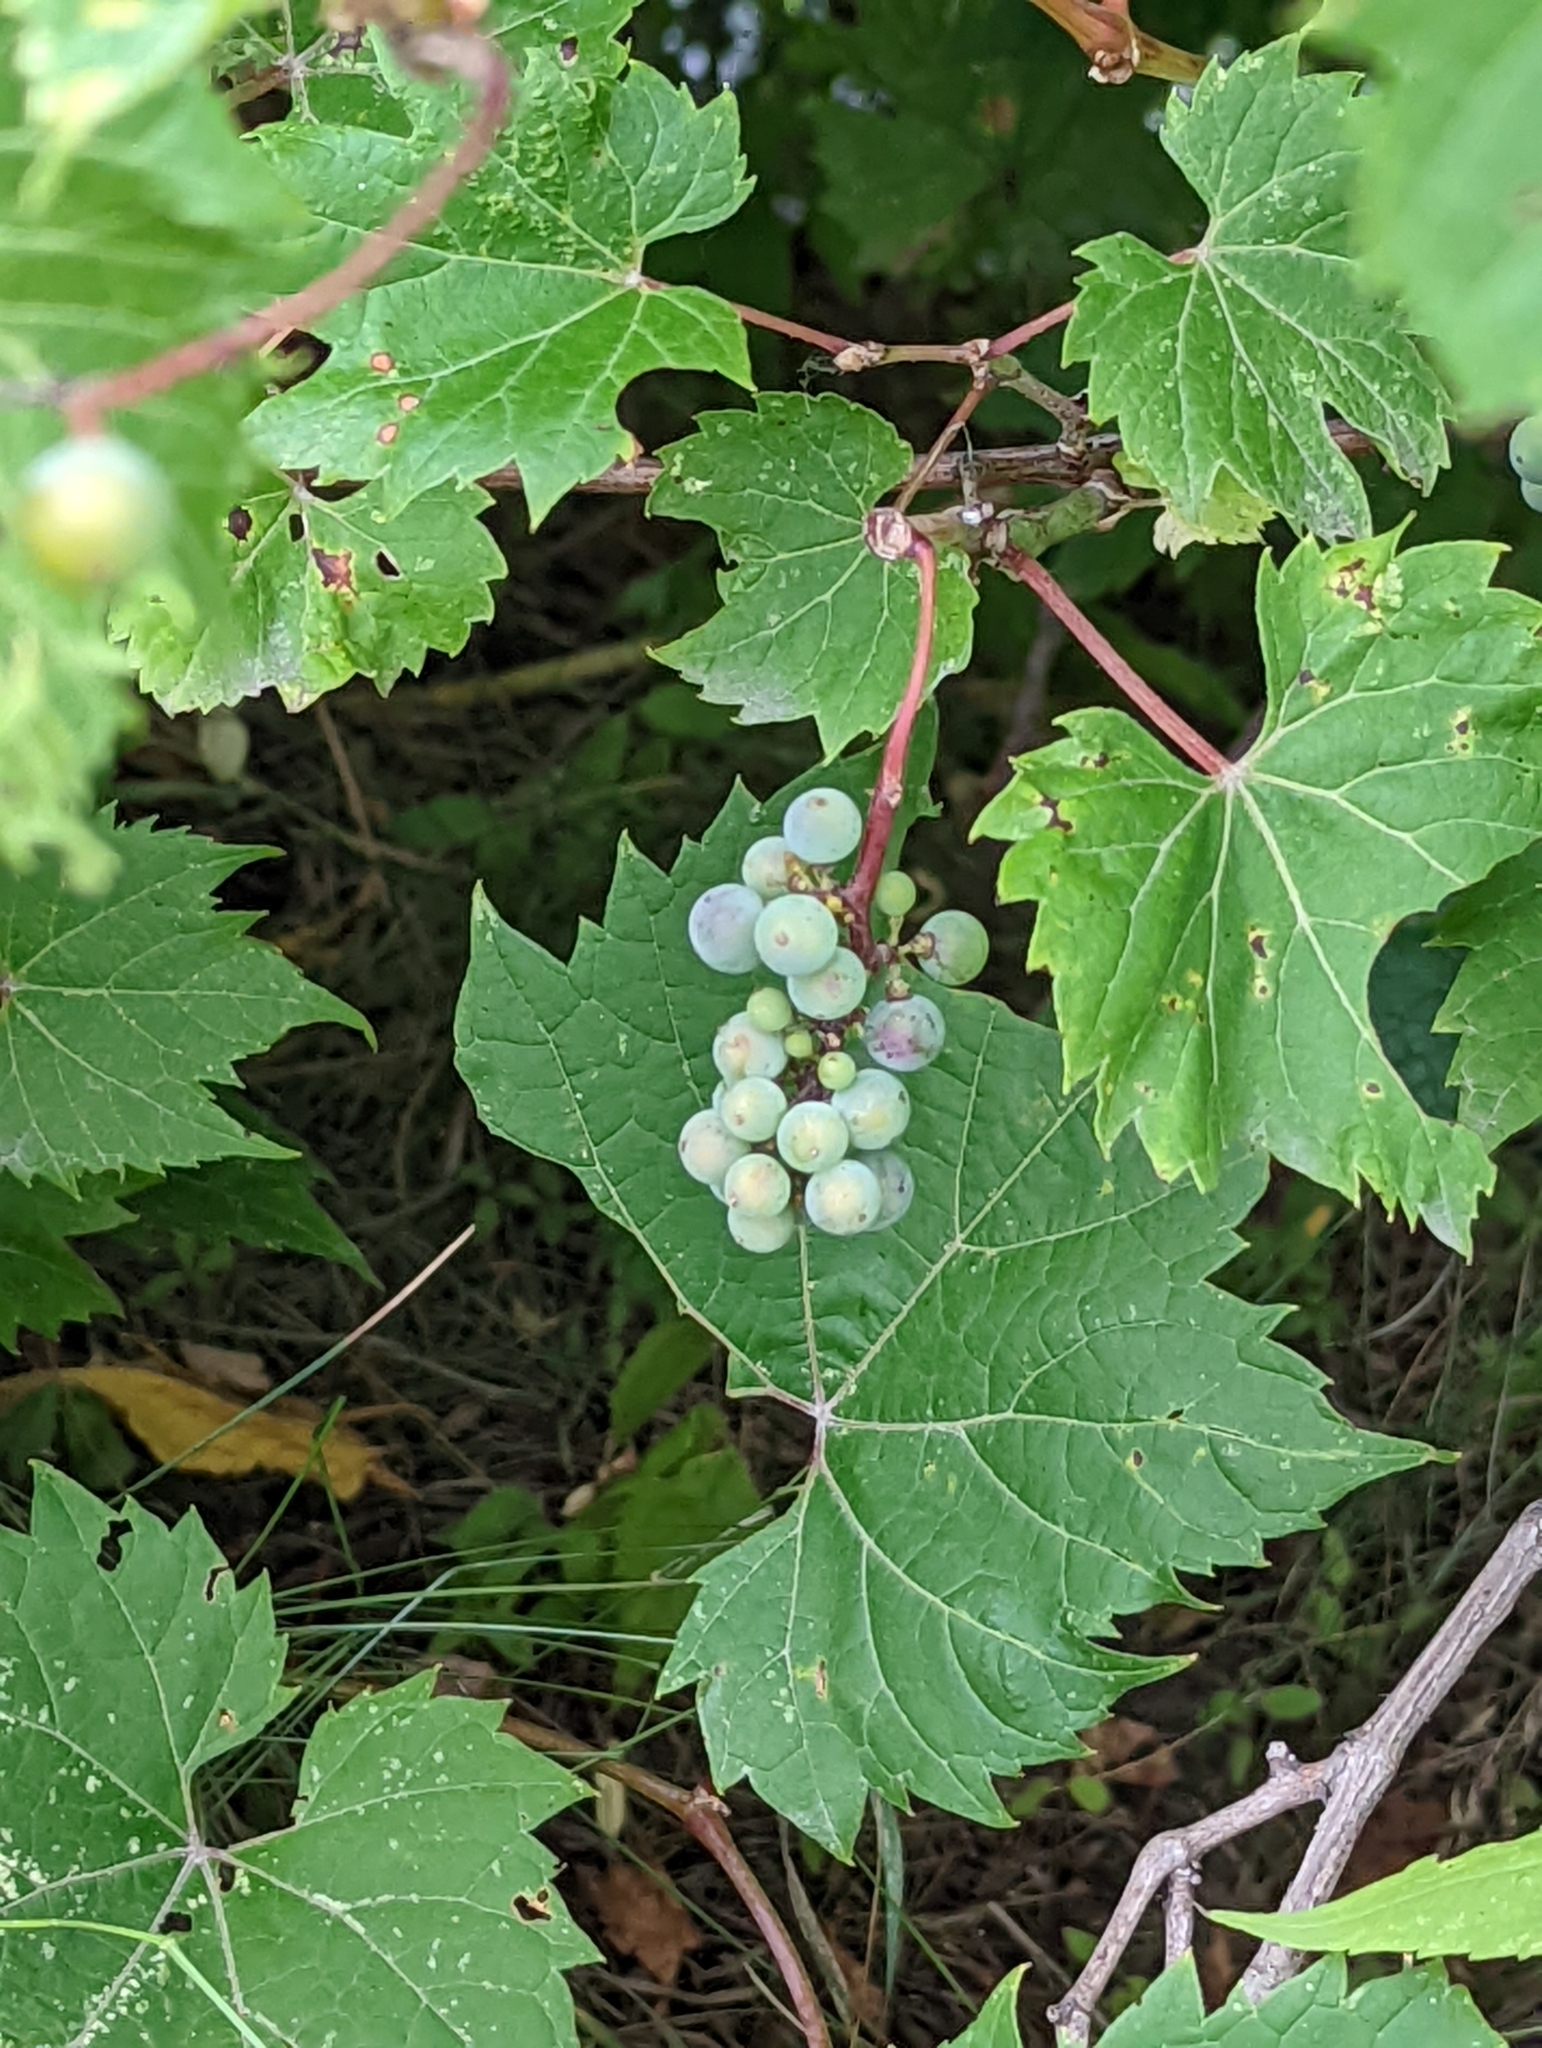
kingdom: Plantae
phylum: Tracheophyta
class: Magnoliopsida
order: Vitales
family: Vitaceae
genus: Vitis
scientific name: Vitis riparia
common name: Frost grape
